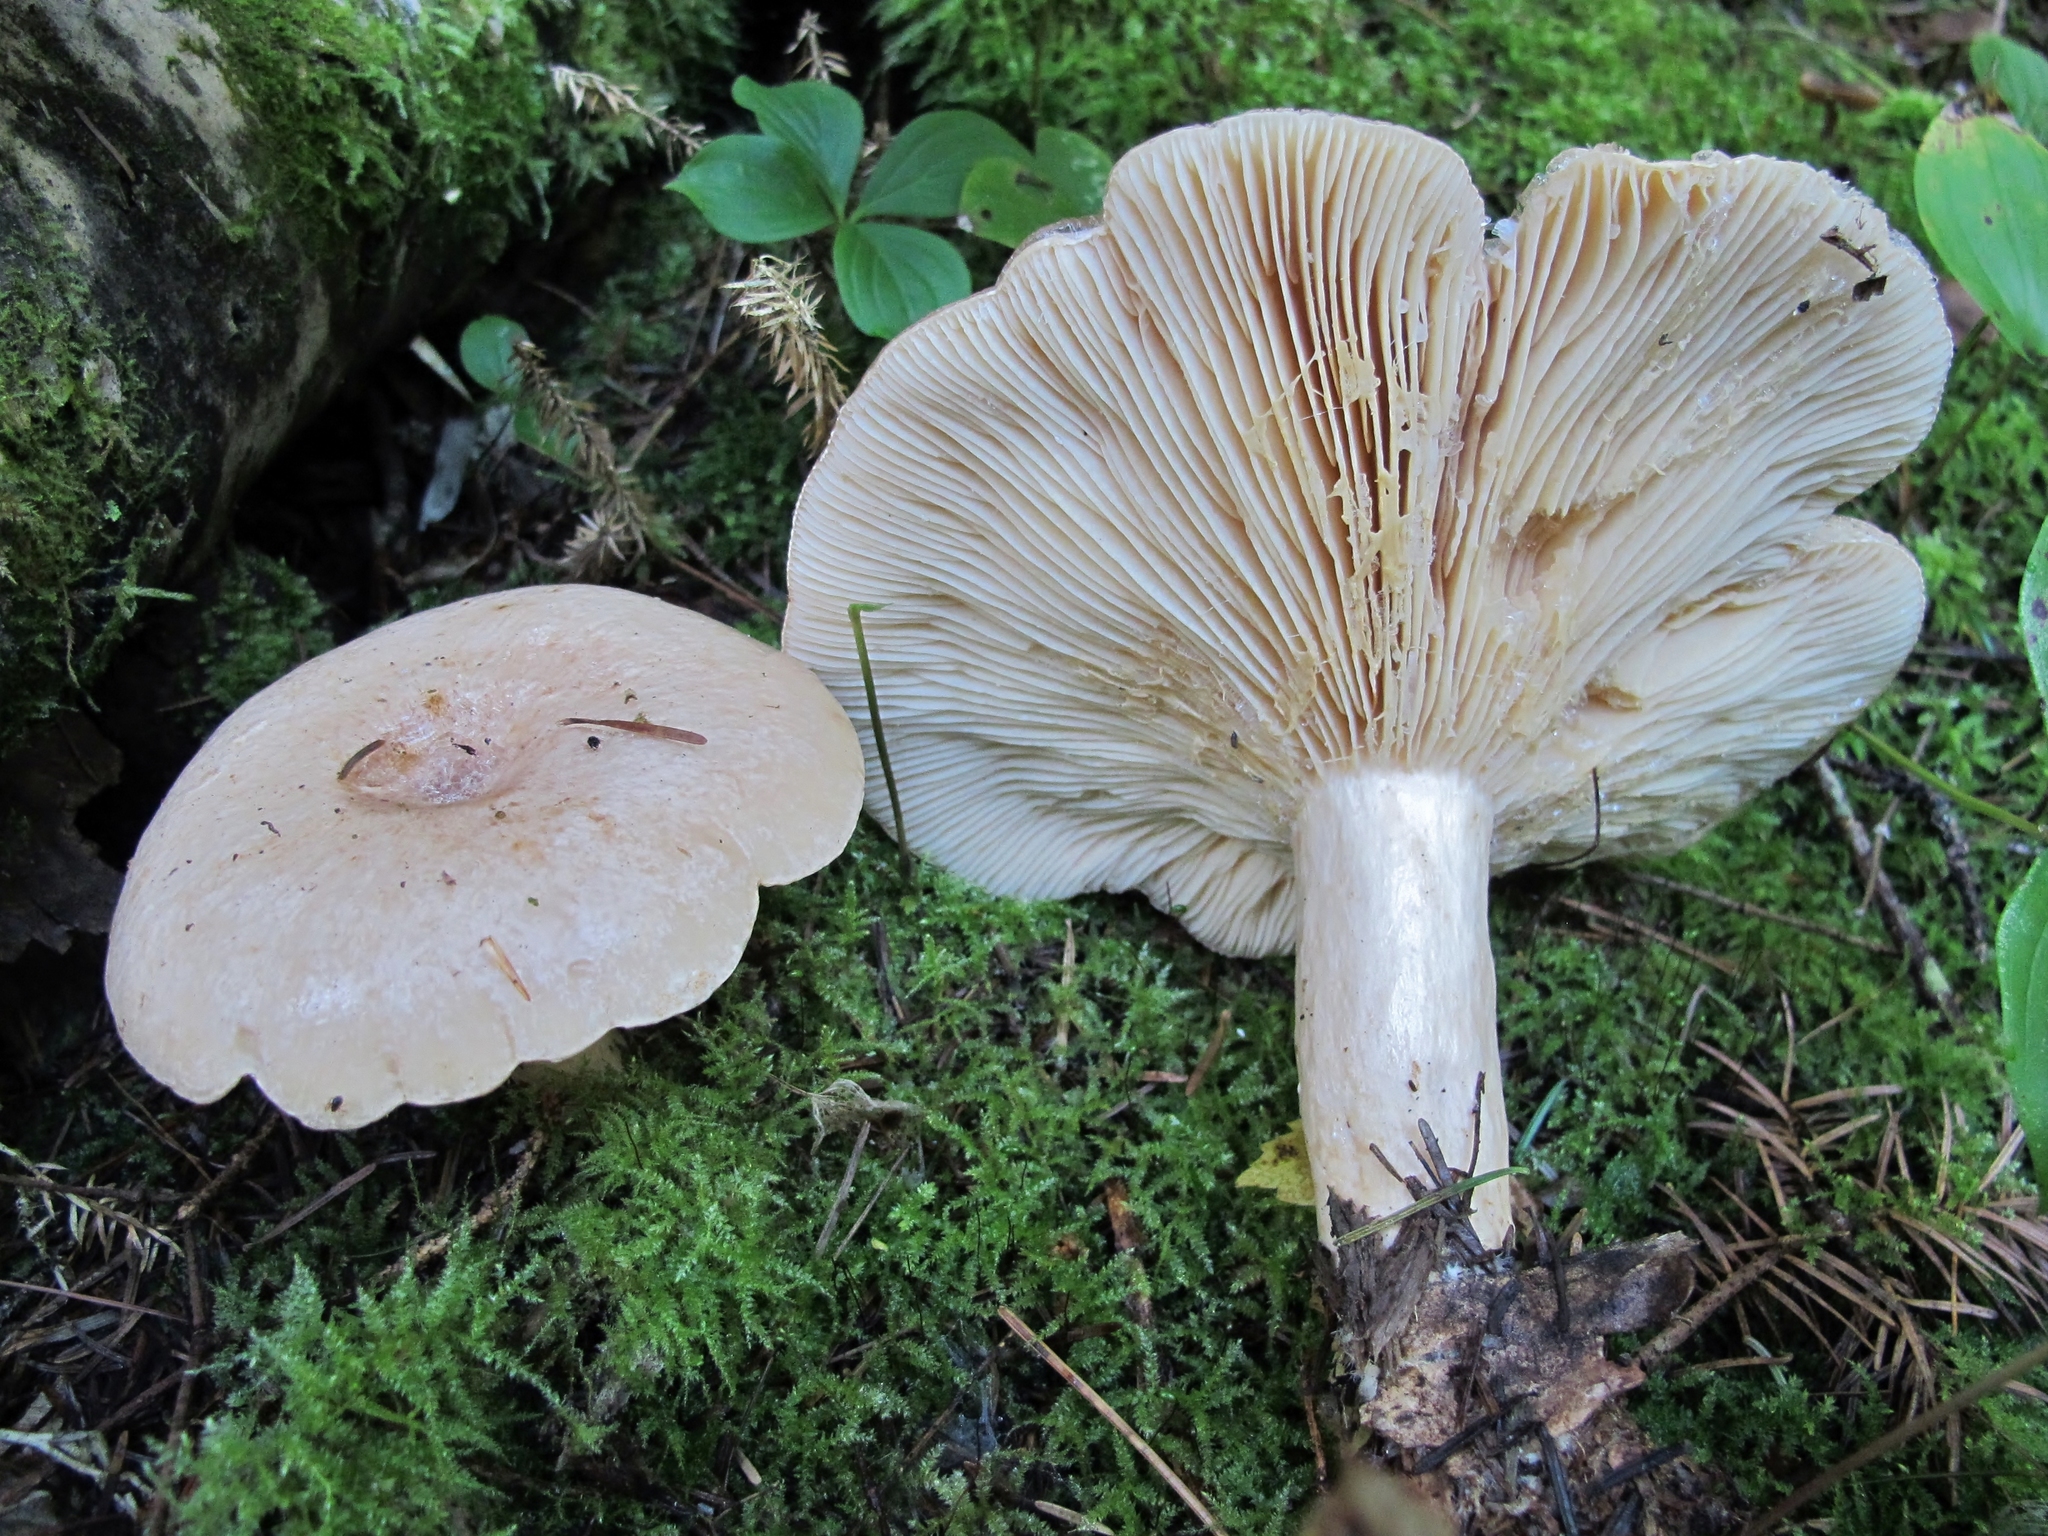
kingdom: Fungi
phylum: Basidiomycota
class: Agaricomycetes
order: Russulales
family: Russulaceae
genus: Lactarius
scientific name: Lactarius affinis
